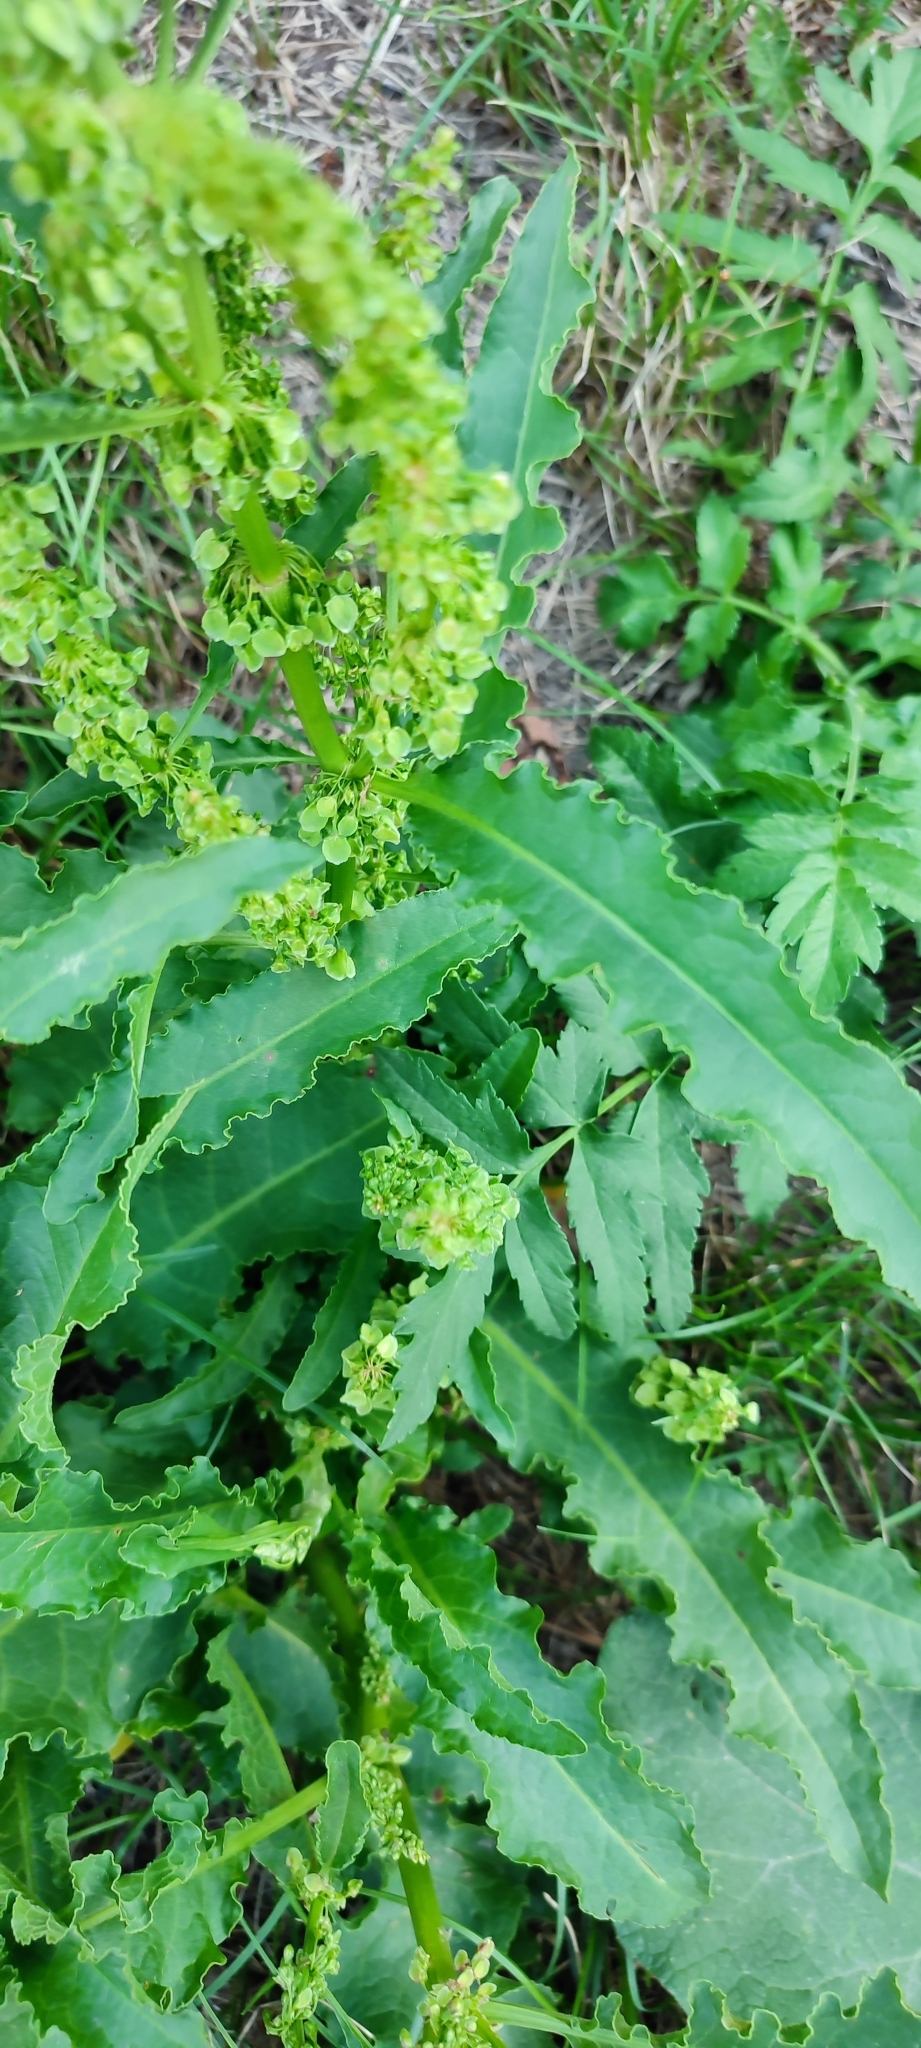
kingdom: Plantae
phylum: Tracheophyta
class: Magnoliopsida
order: Caryophyllales
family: Polygonaceae
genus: Rumex
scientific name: Rumex pseudonatronatus
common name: Field dock
